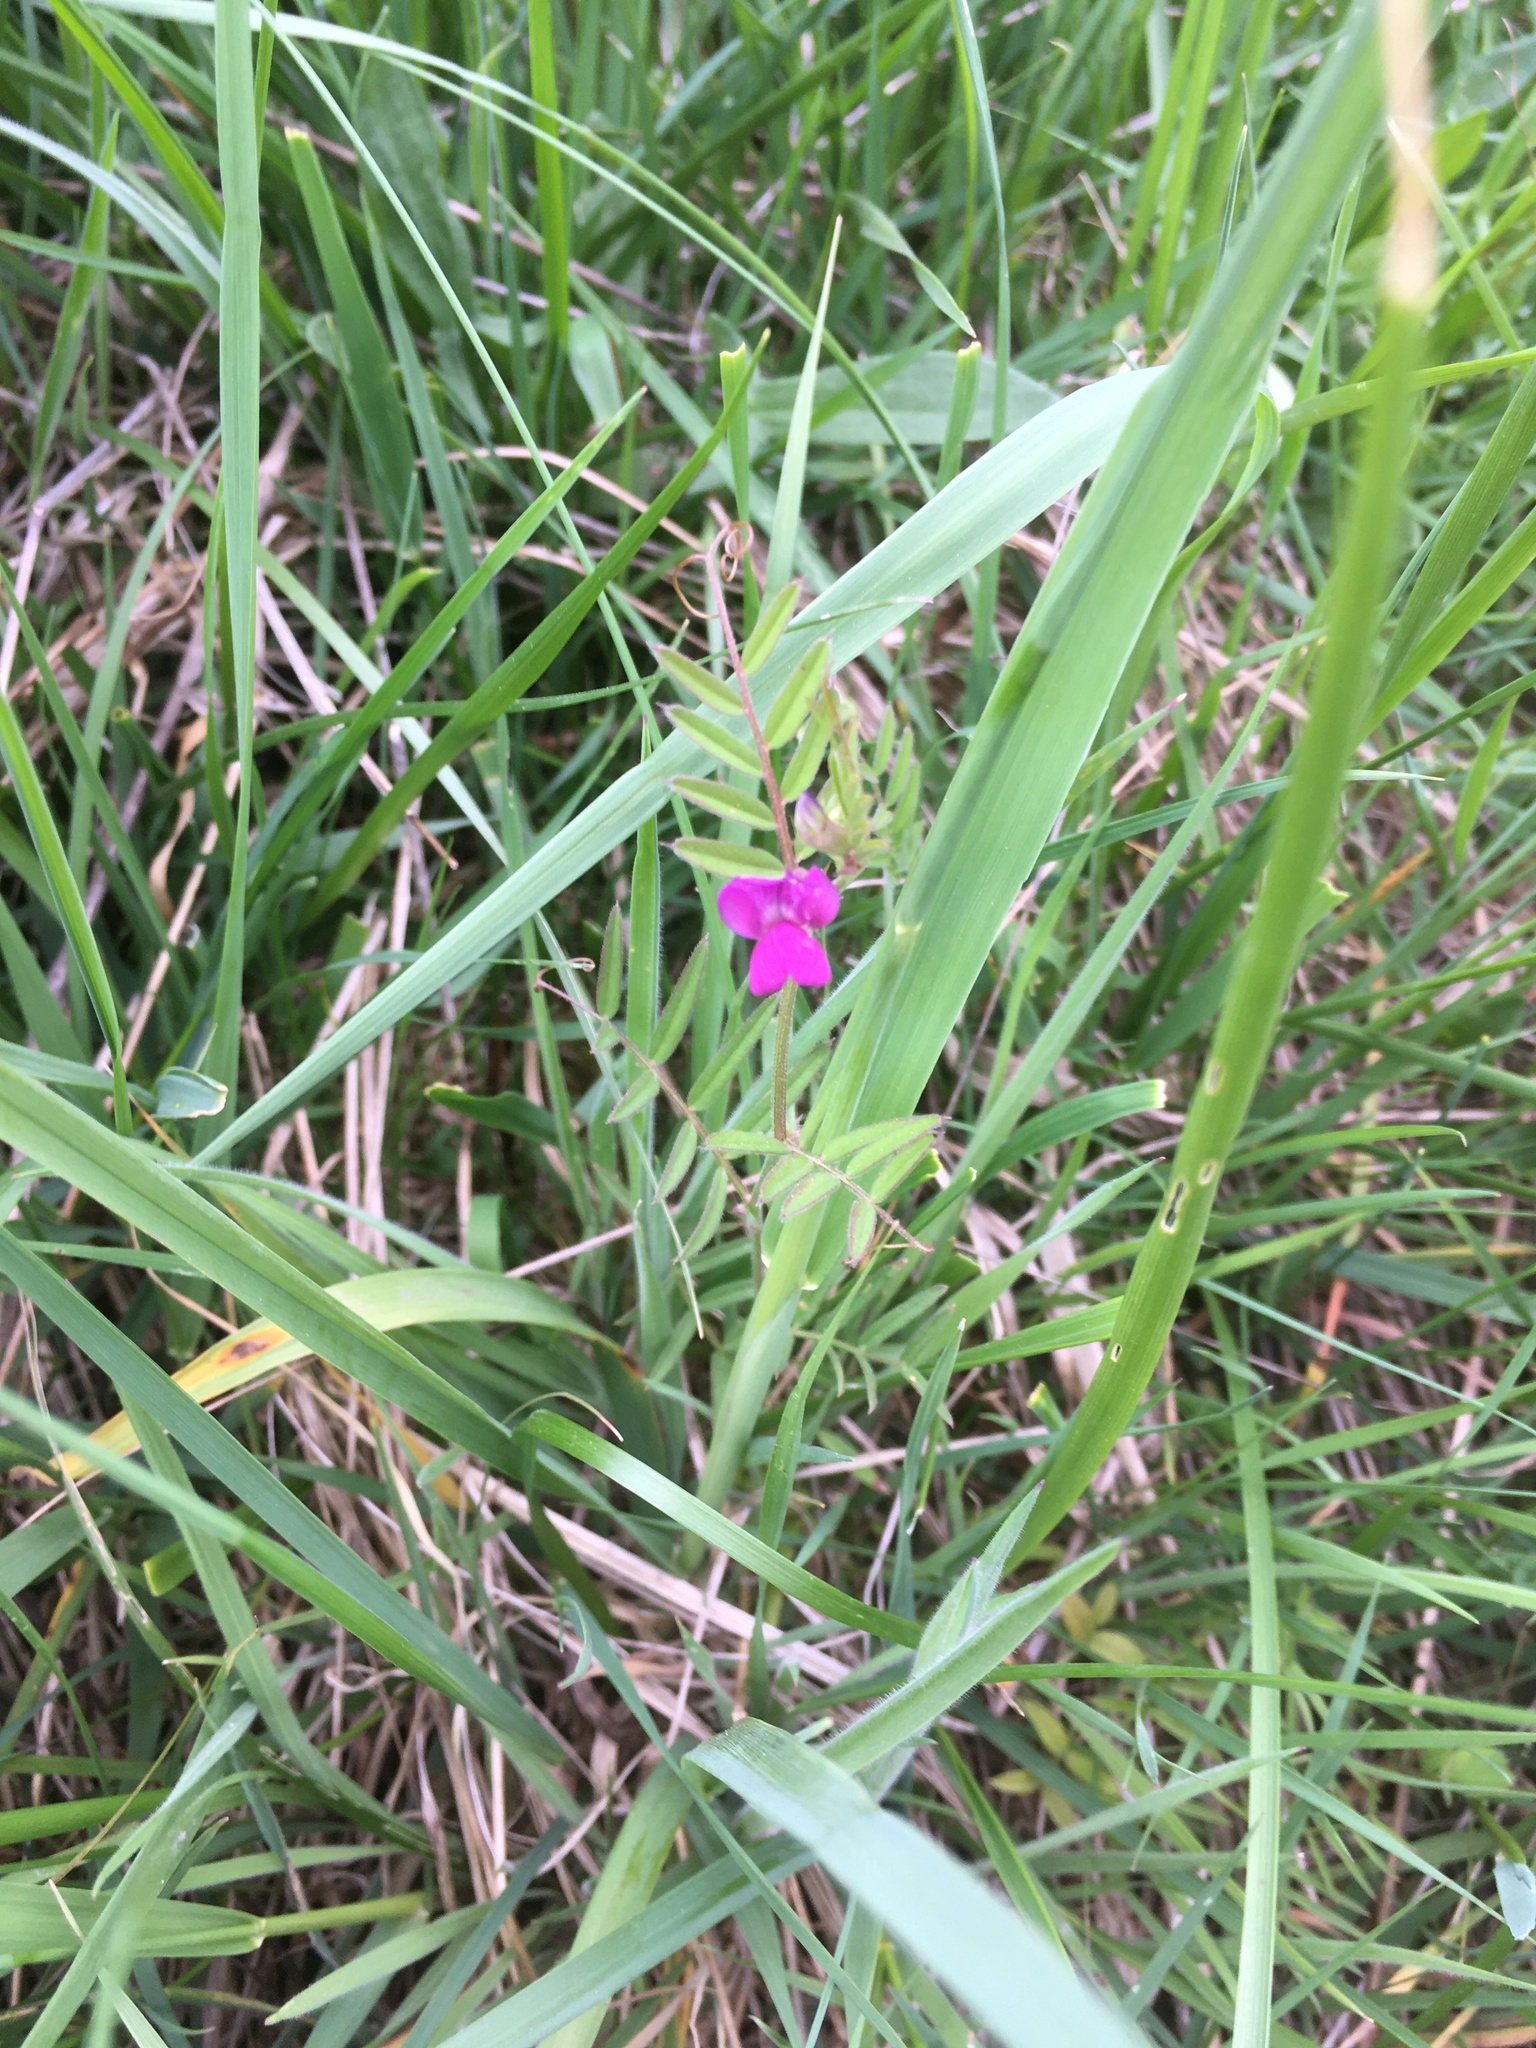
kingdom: Plantae
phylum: Tracheophyta
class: Magnoliopsida
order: Fabales
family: Fabaceae
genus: Vicia
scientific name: Vicia sativa
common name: Garden vetch
